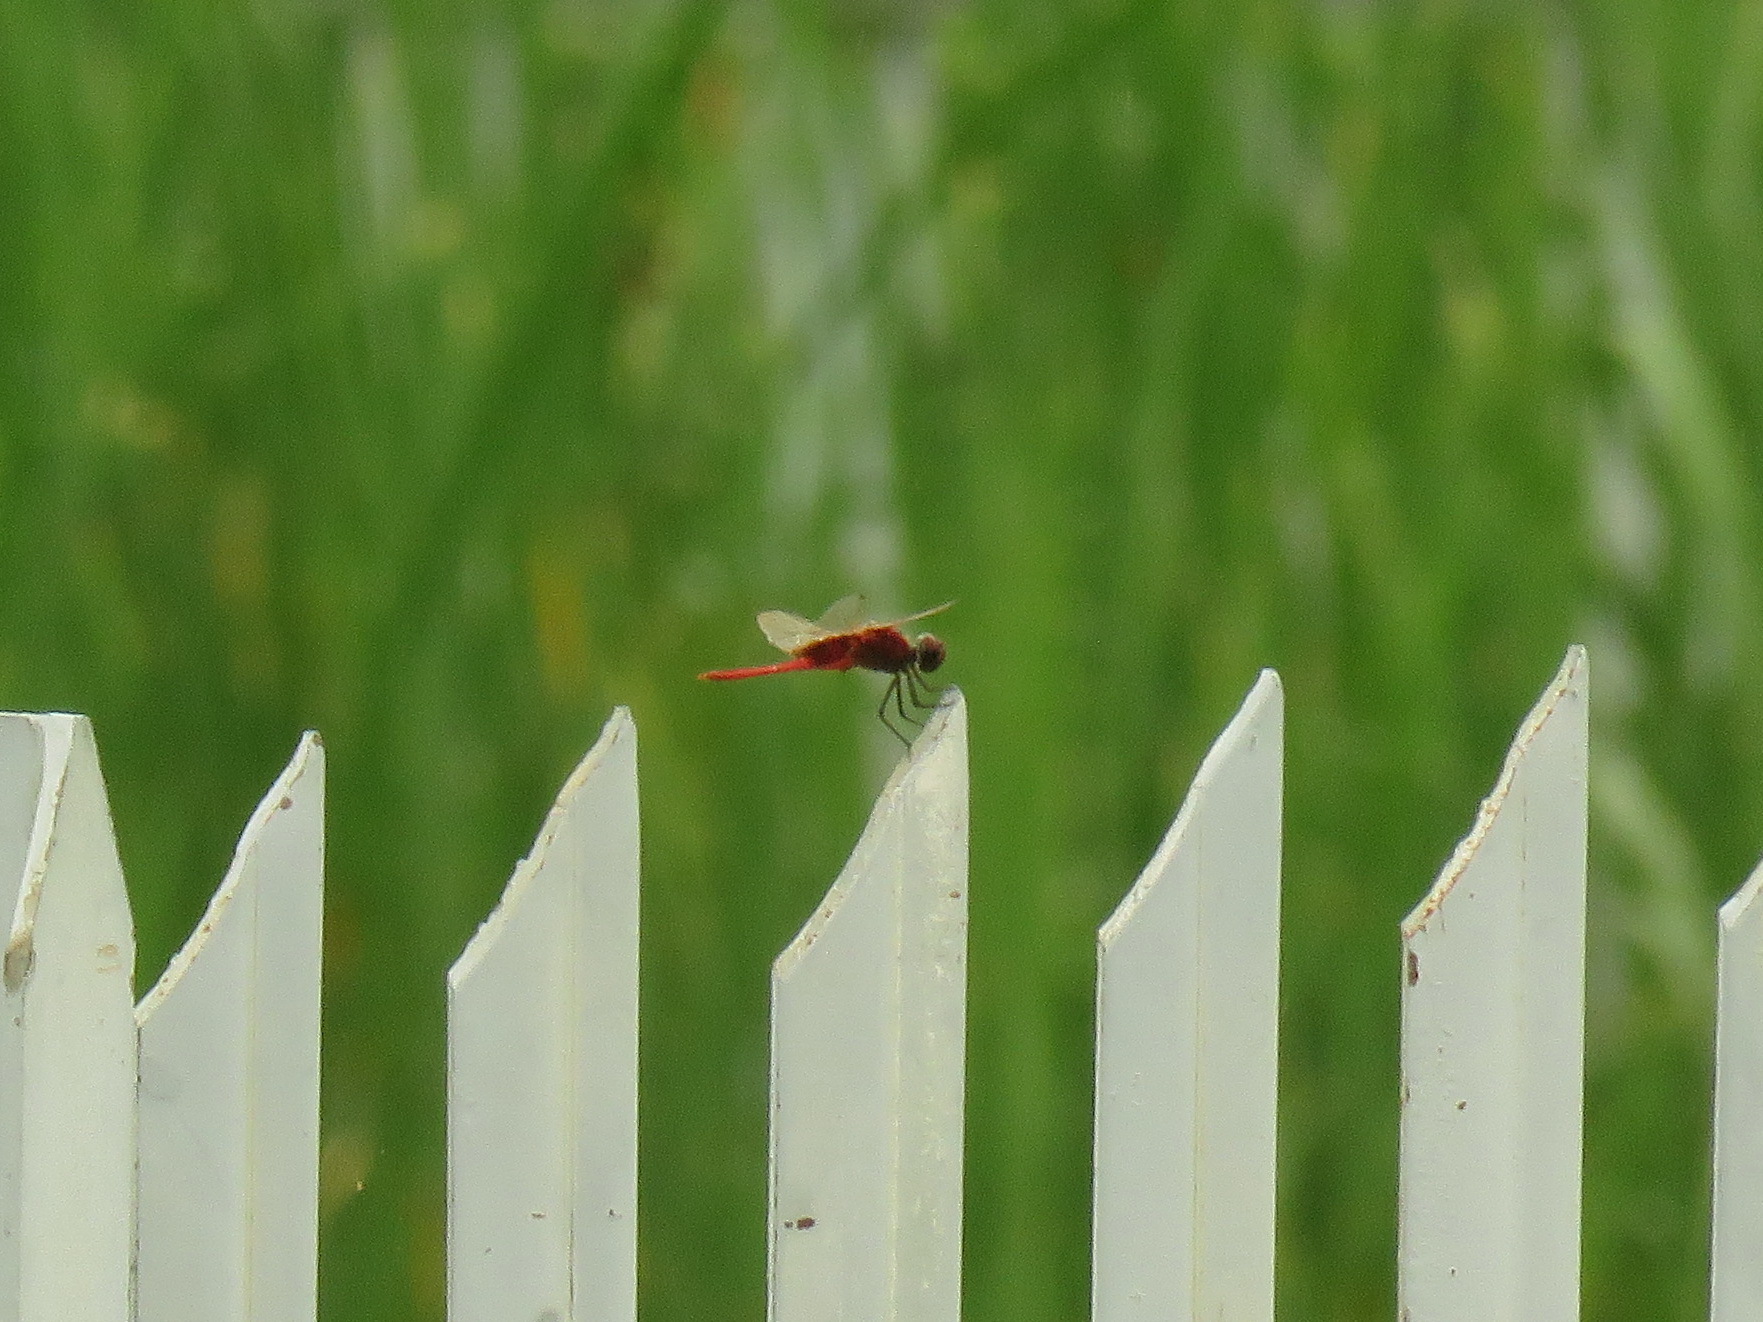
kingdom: Animalia
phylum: Arthropoda
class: Insecta
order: Odonata
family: Libellulidae
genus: Trithemis
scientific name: Trithemis aurora
